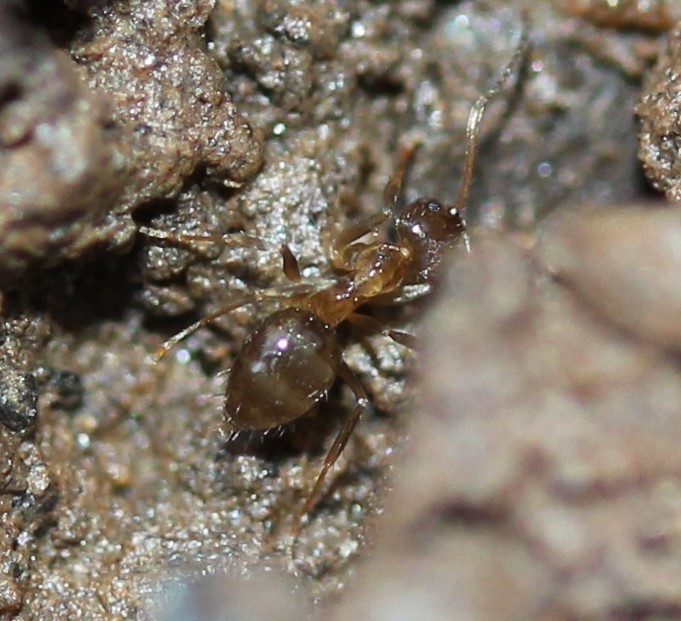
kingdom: Animalia
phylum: Arthropoda
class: Insecta
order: Hymenoptera
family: Formicidae
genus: Prenolepis
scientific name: Prenolepis imparis
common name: Small honey ant
